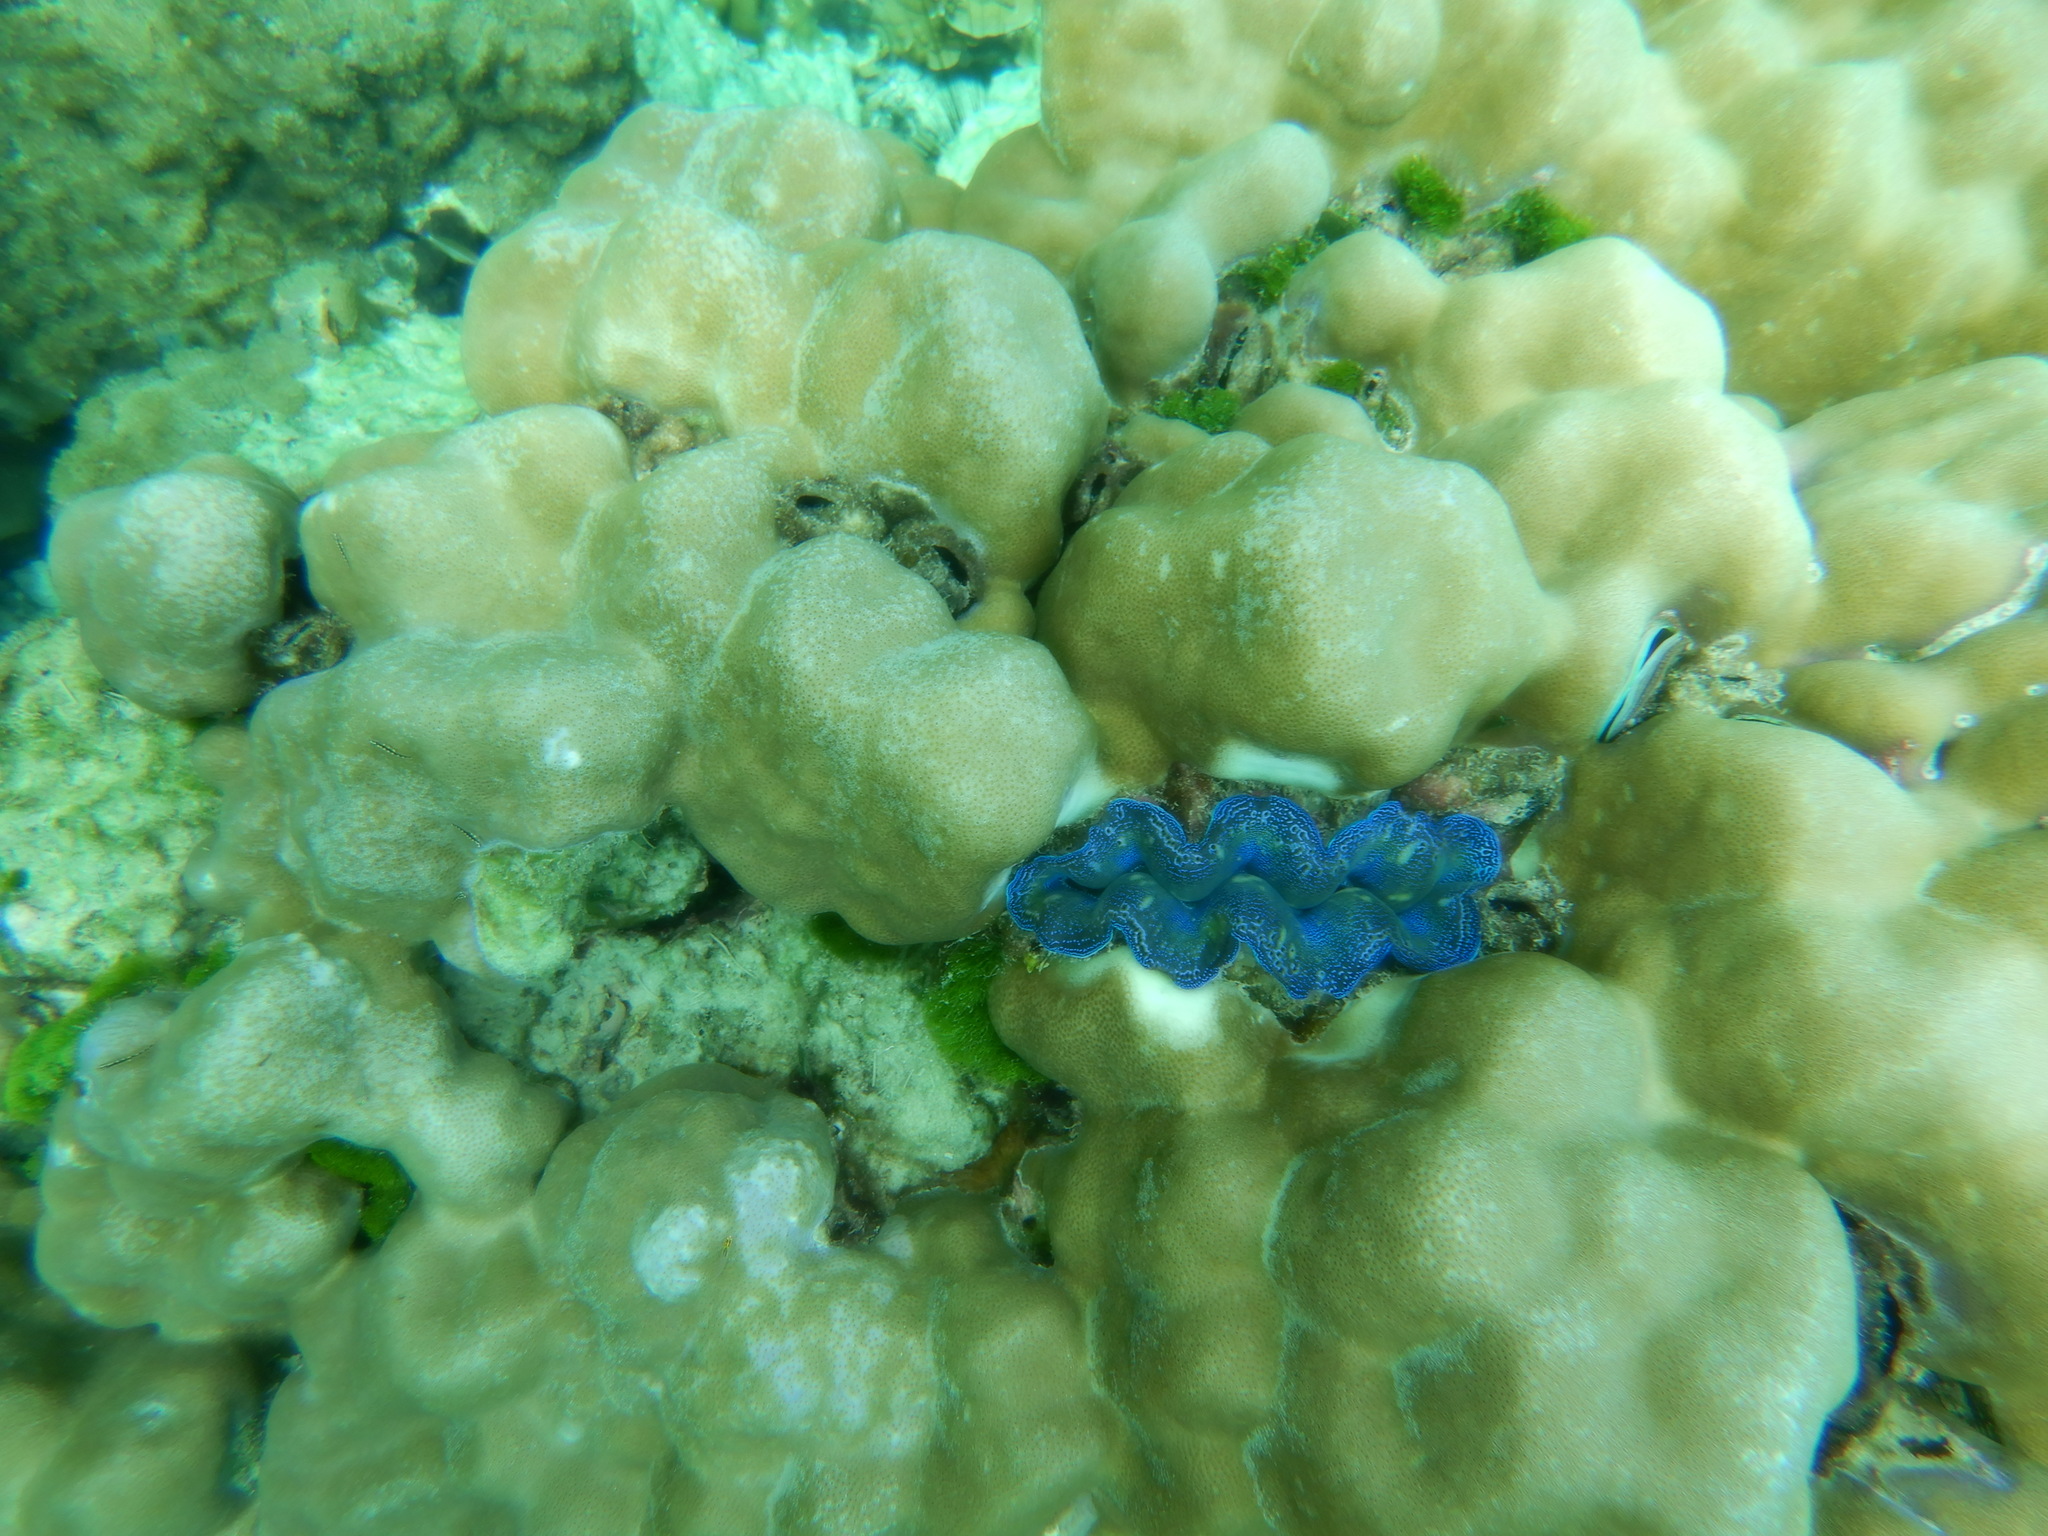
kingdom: Animalia
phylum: Mollusca
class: Bivalvia
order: Cardiida
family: Cardiidae
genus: Tridacna
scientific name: Tridacna crocea
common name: Boring clam
